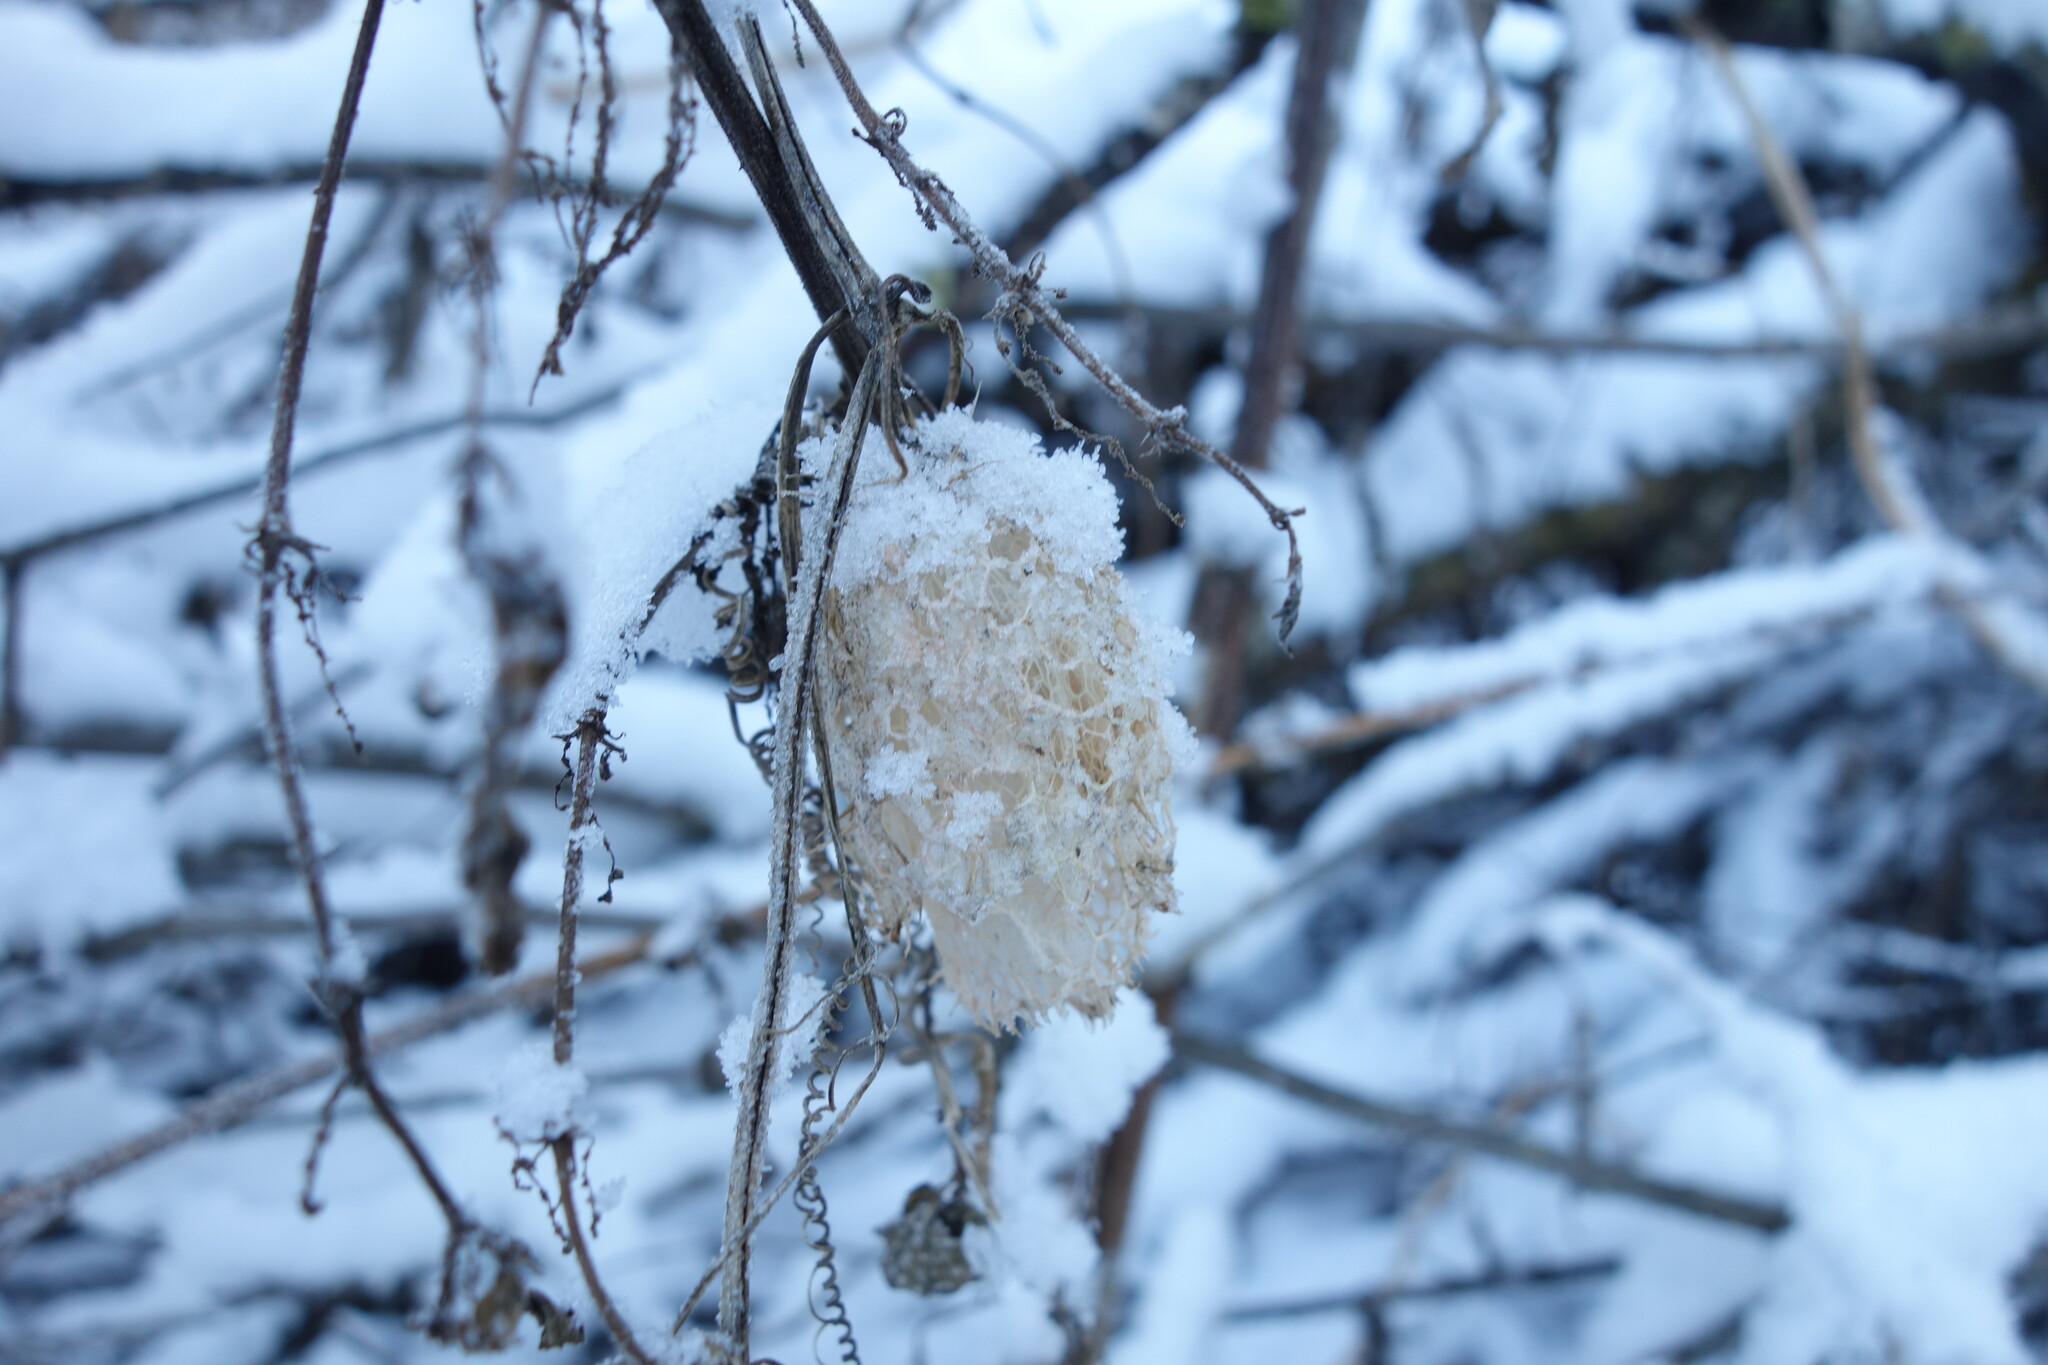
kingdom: Plantae
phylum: Tracheophyta
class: Magnoliopsida
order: Cucurbitales
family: Cucurbitaceae
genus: Echinocystis
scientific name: Echinocystis lobata
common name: Wild cucumber
